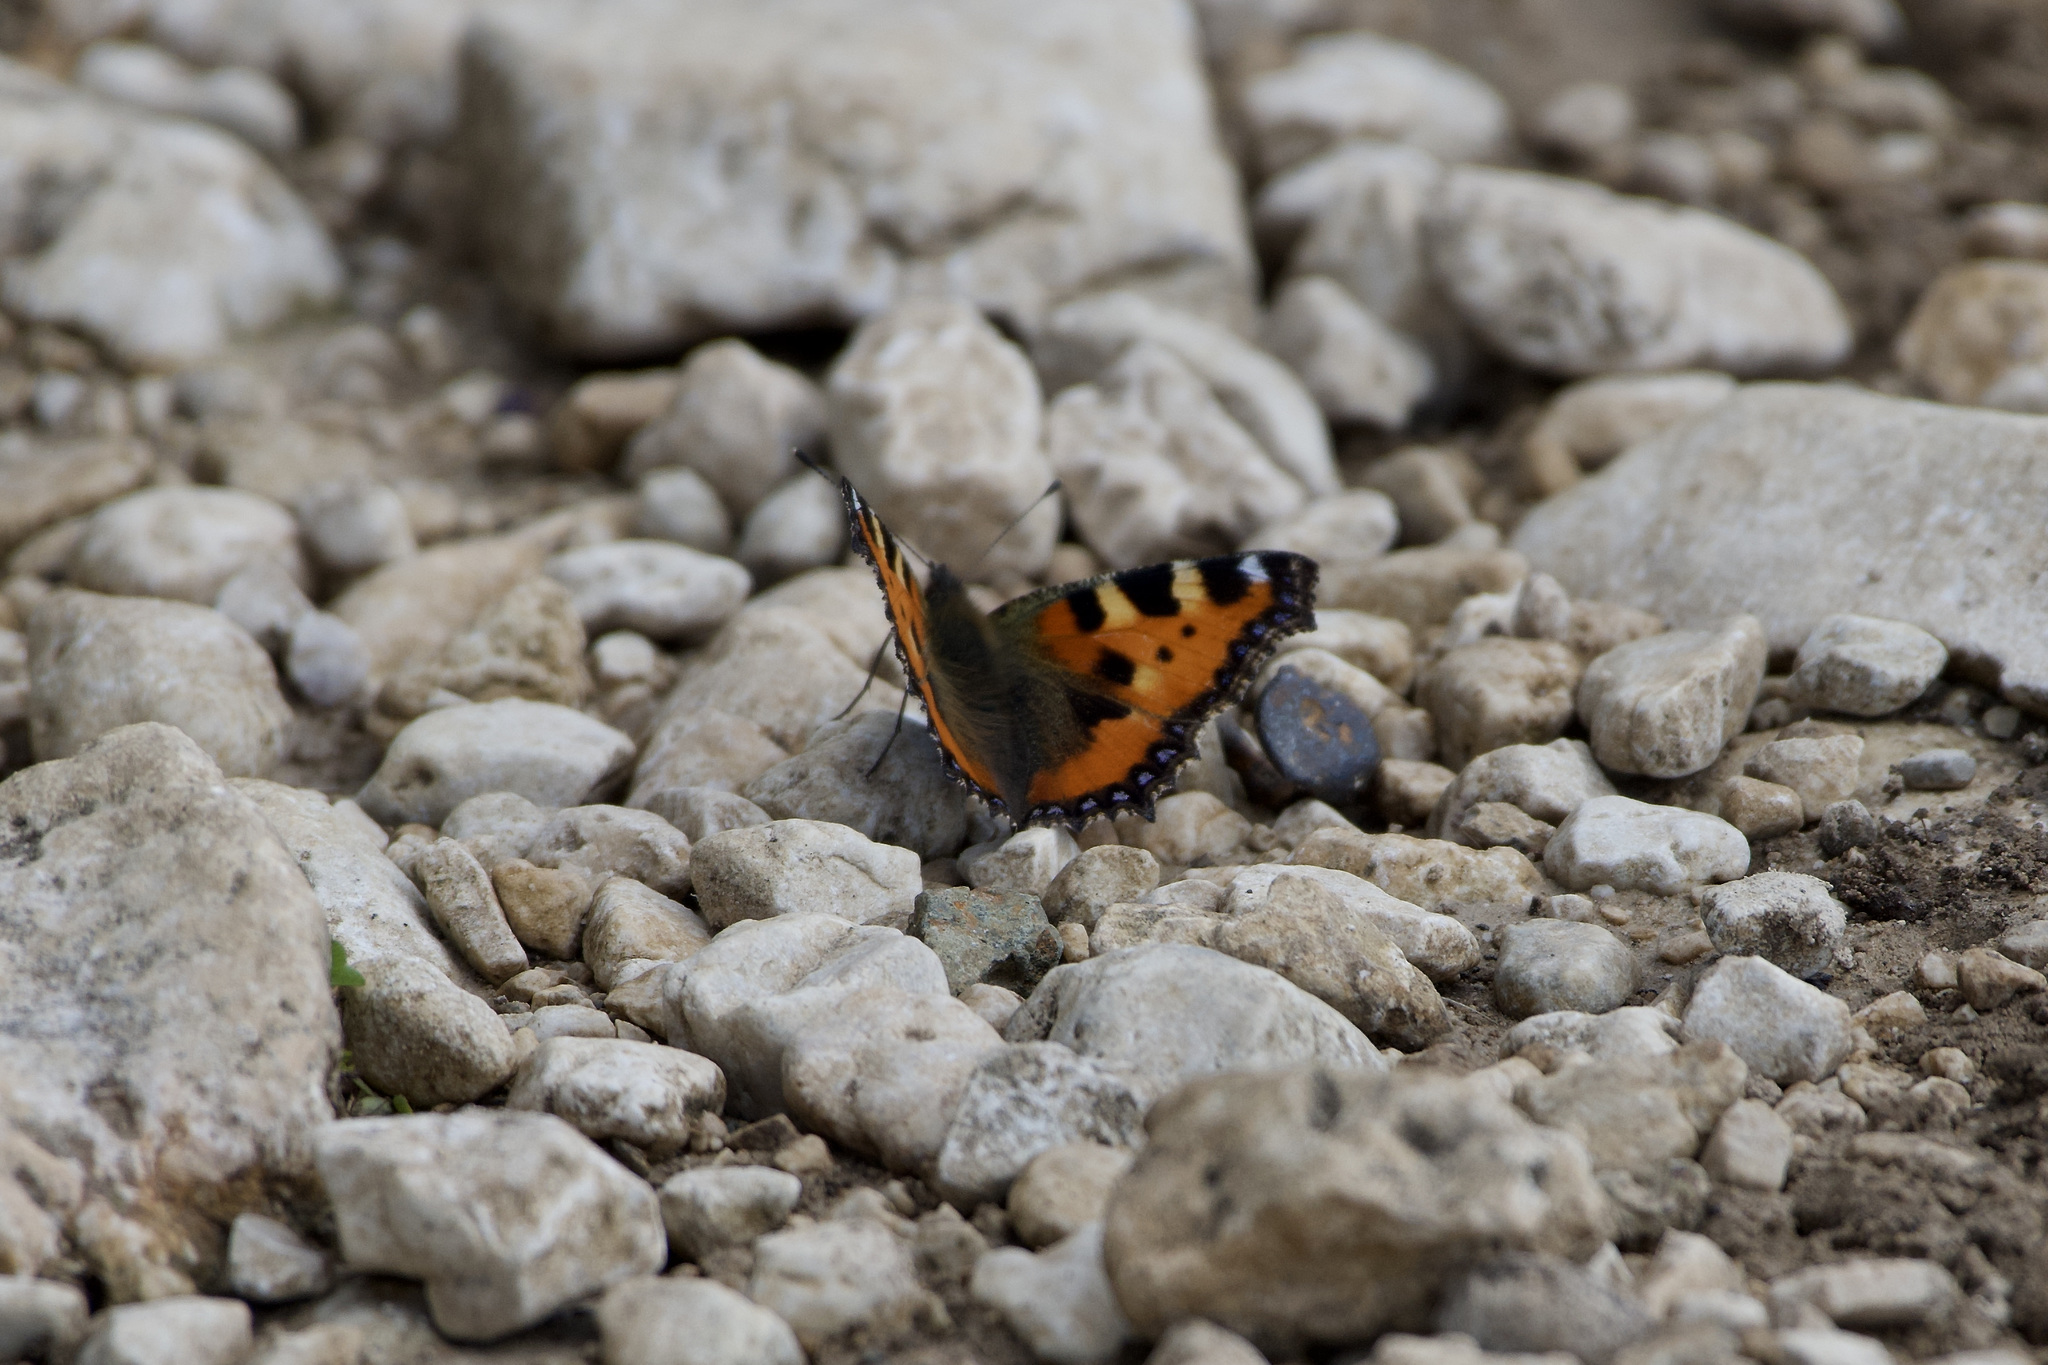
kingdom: Animalia
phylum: Arthropoda
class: Insecta
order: Lepidoptera
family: Nymphalidae
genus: Aglais
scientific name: Aglais urticae
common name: Small tortoiseshell
